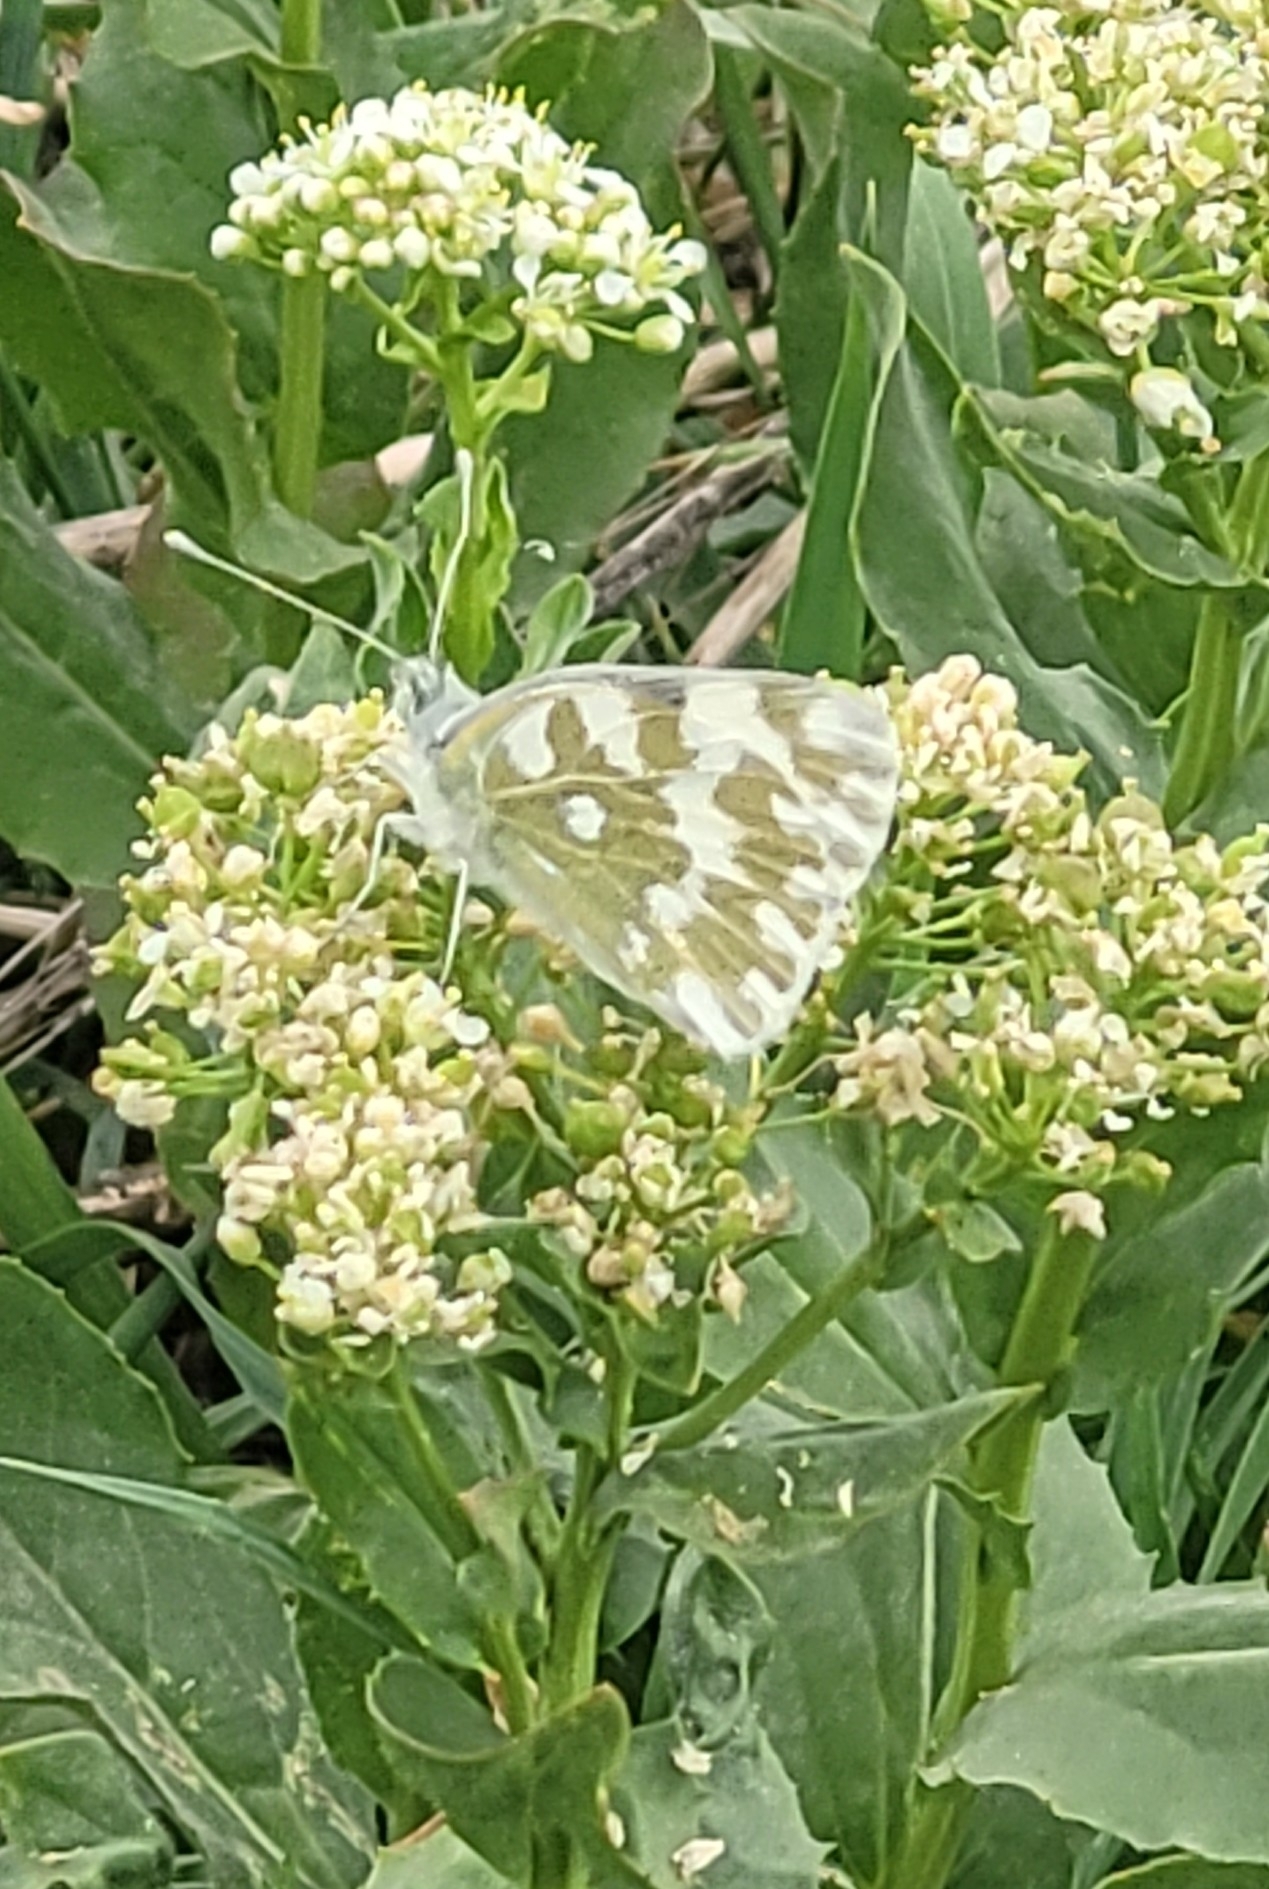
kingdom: Animalia
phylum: Arthropoda
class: Insecta
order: Lepidoptera
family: Pieridae
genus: Pontia
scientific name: Pontia edusa
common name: Eastern bath white
